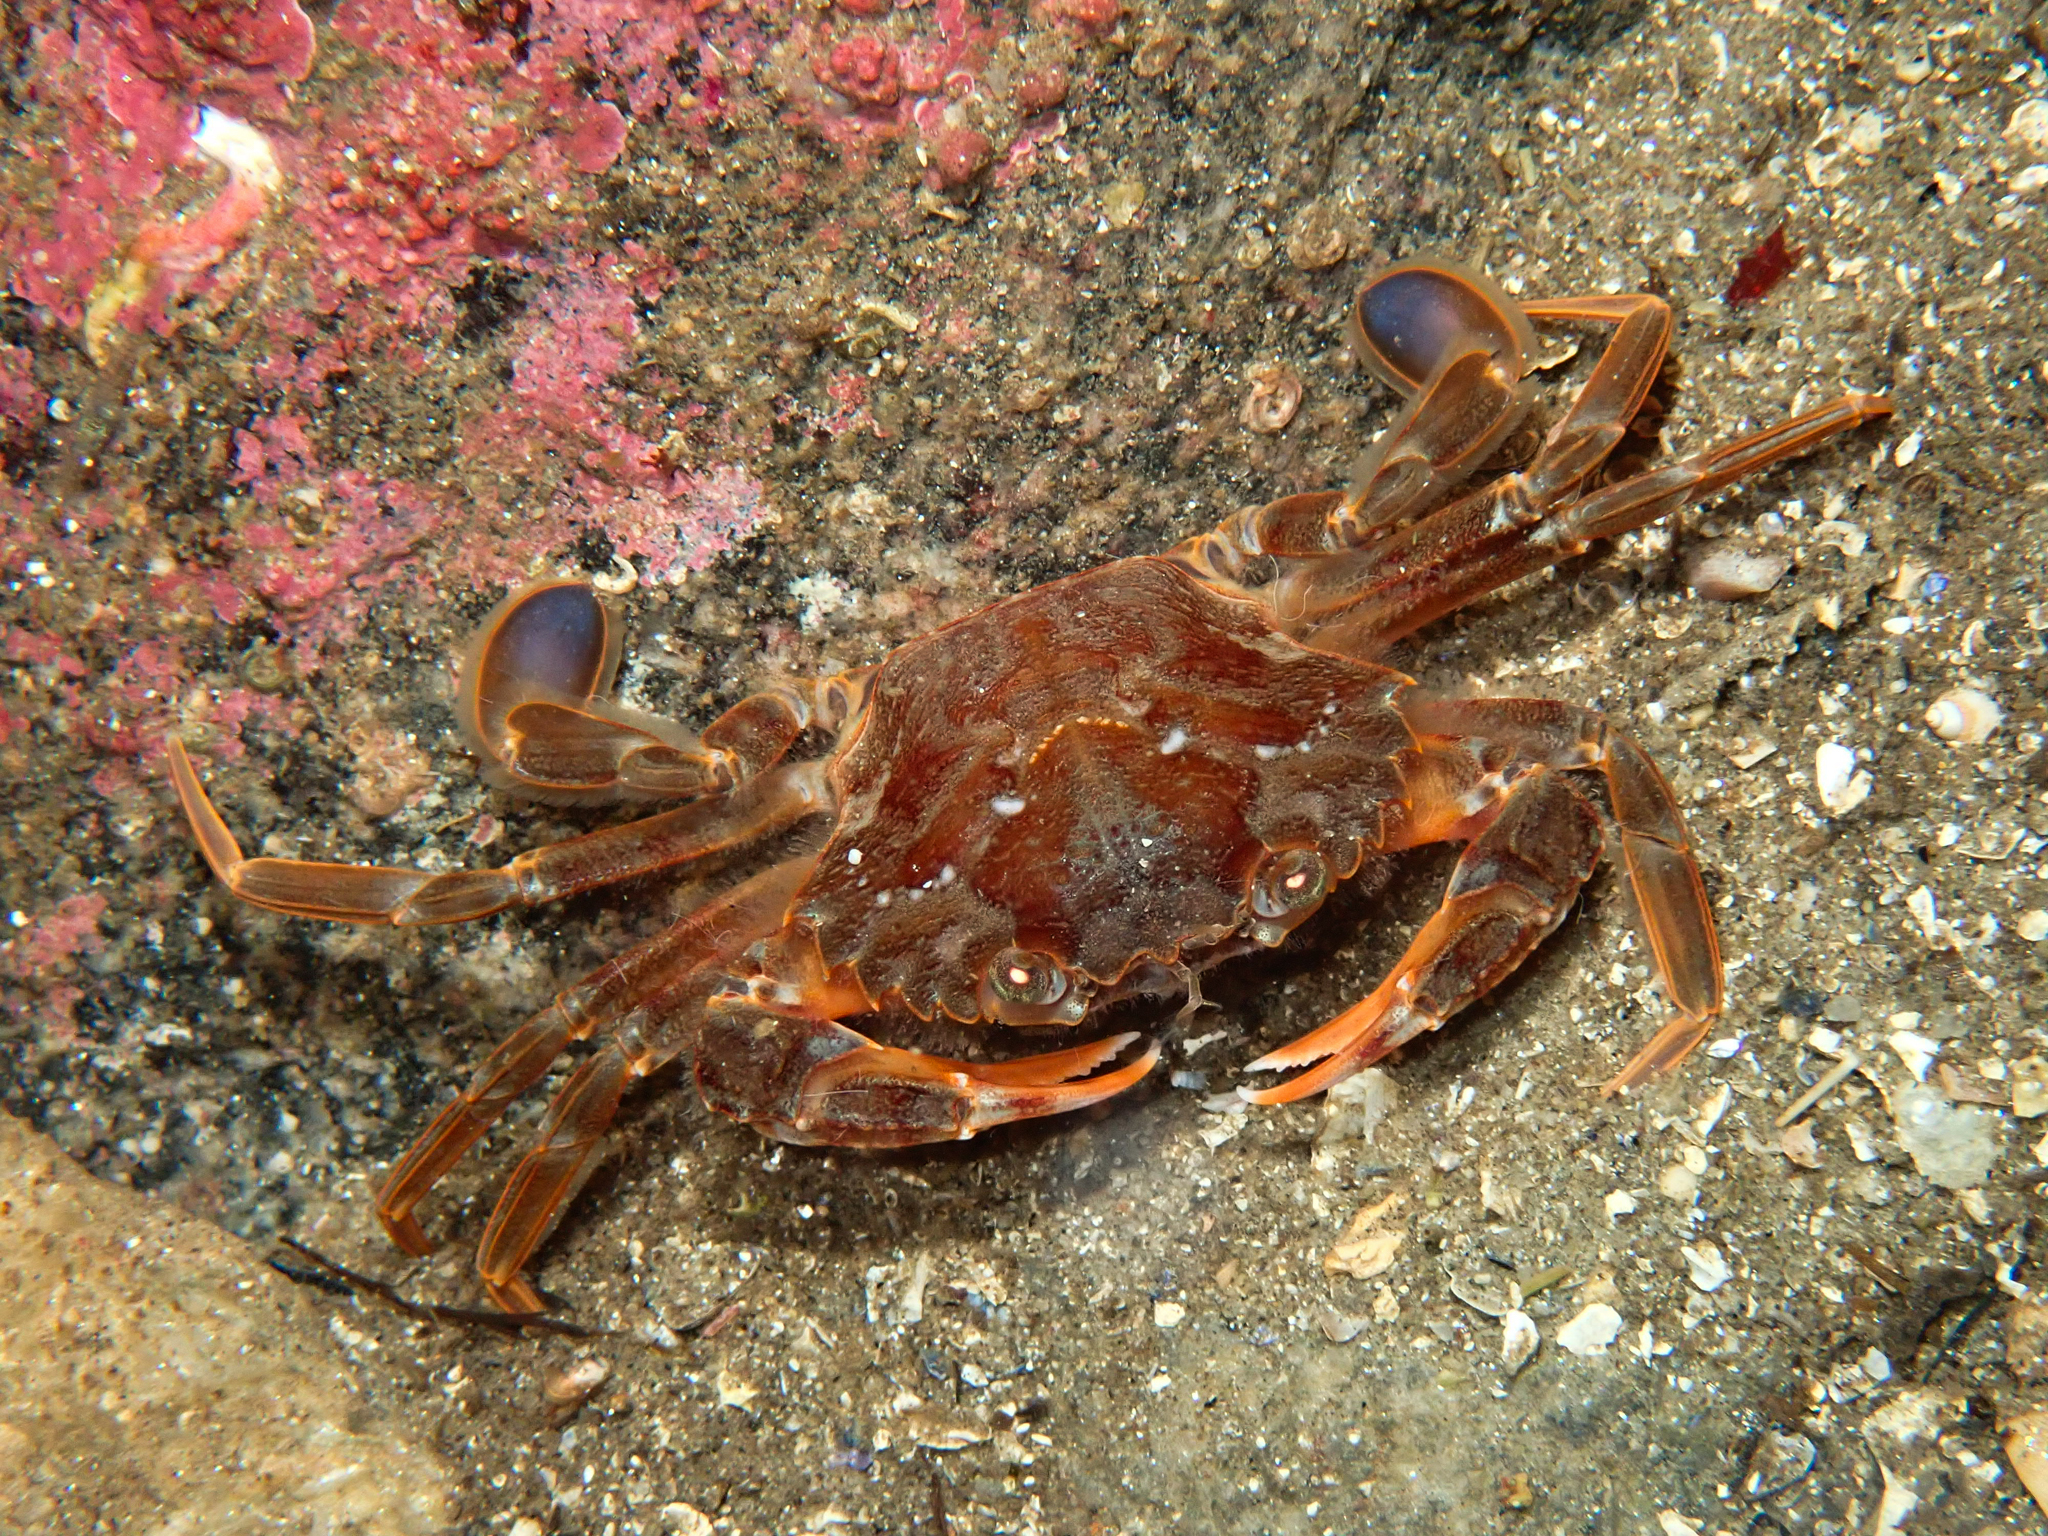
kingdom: Animalia
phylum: Arthropoda
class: Malacostraca
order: Decapoda
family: Polybiidae
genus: Liocarcinus
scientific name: Liocarcinus depurator
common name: Cleanser crab
